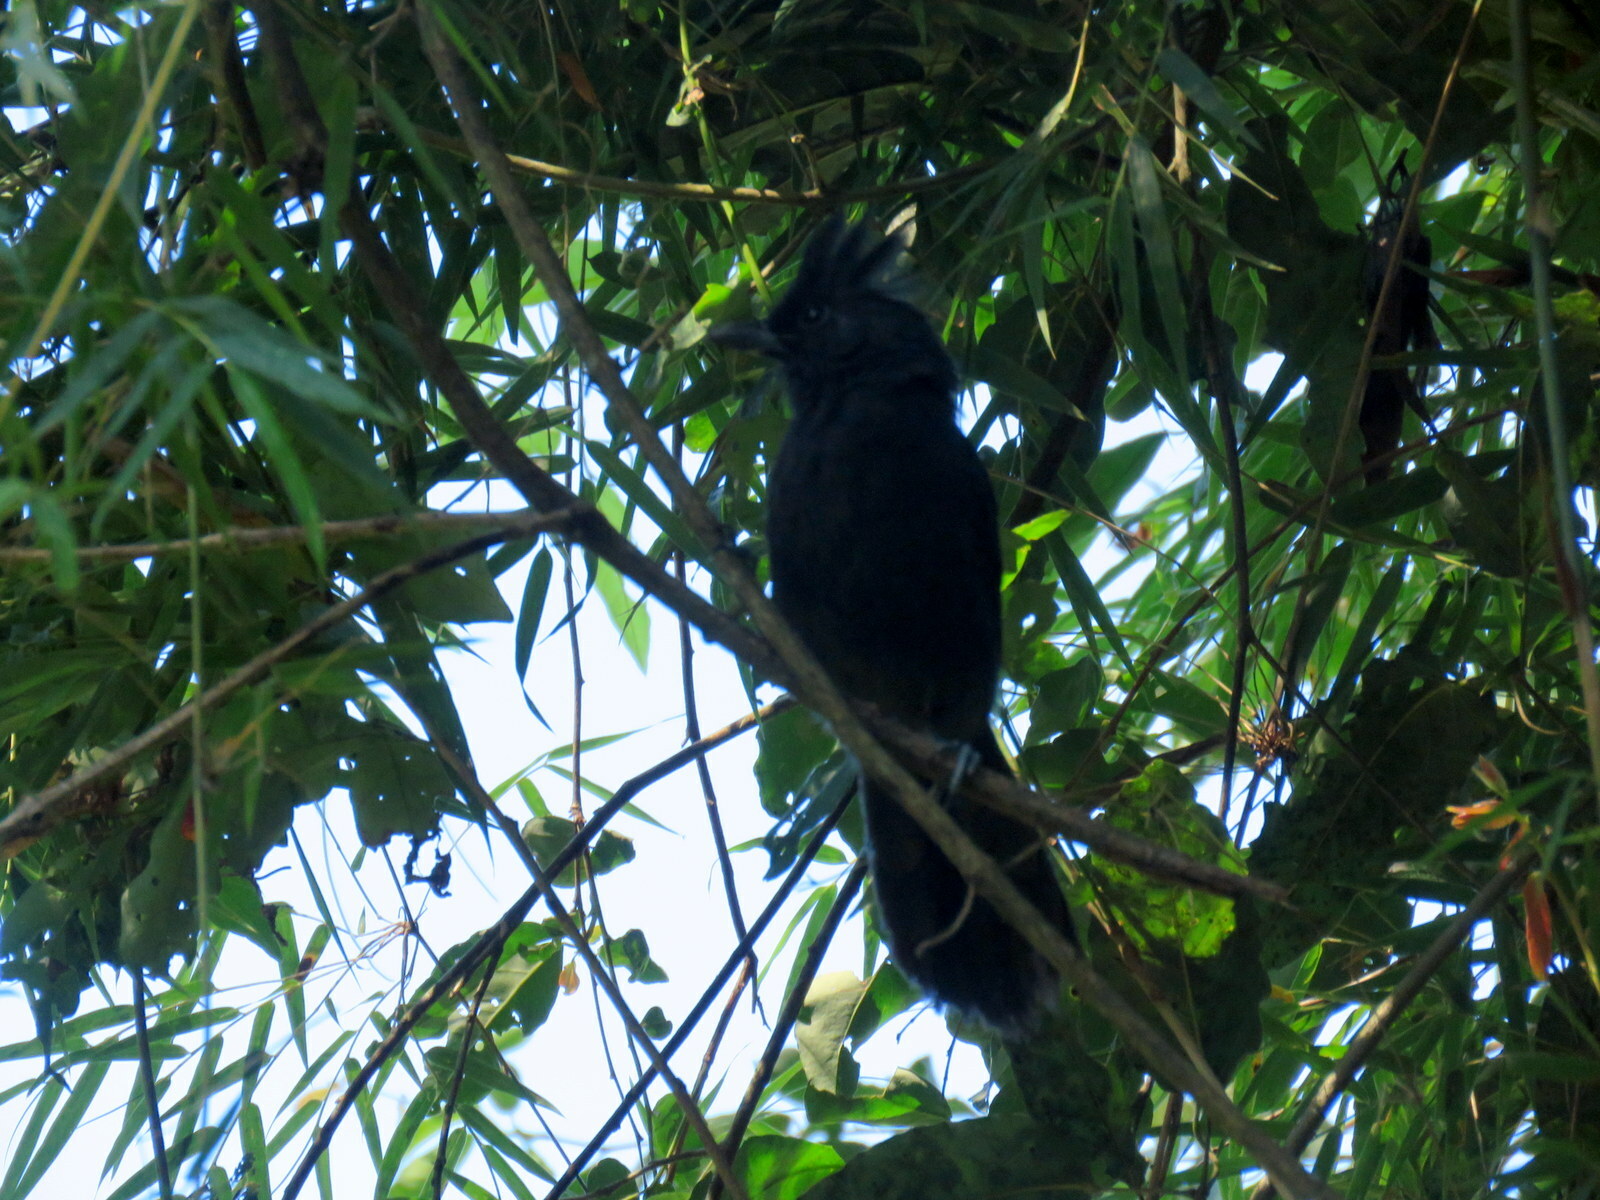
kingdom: Animalia
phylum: Chordata
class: Aves
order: Passeriformes
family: Thamnophilidae
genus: Mackenziaena
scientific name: Mackenziaena severa
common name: Tufted antshrike
